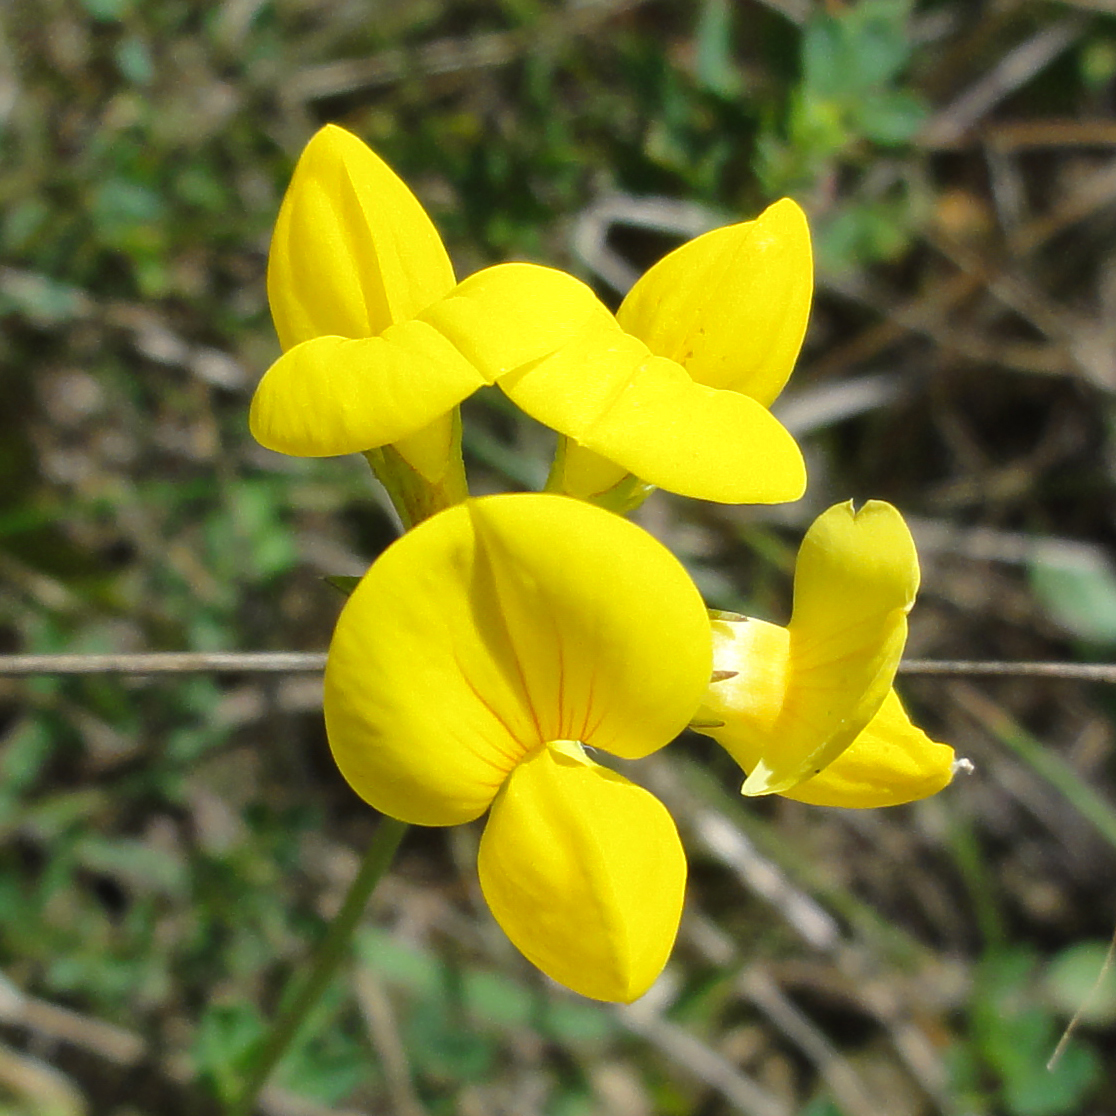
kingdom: Plantae
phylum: Tracheophyta
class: Magnoliopsida
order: Fabales
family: Fabaceae
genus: Lotus
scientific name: Lotus corniculatus
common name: Common bird's-foot-trefoil
